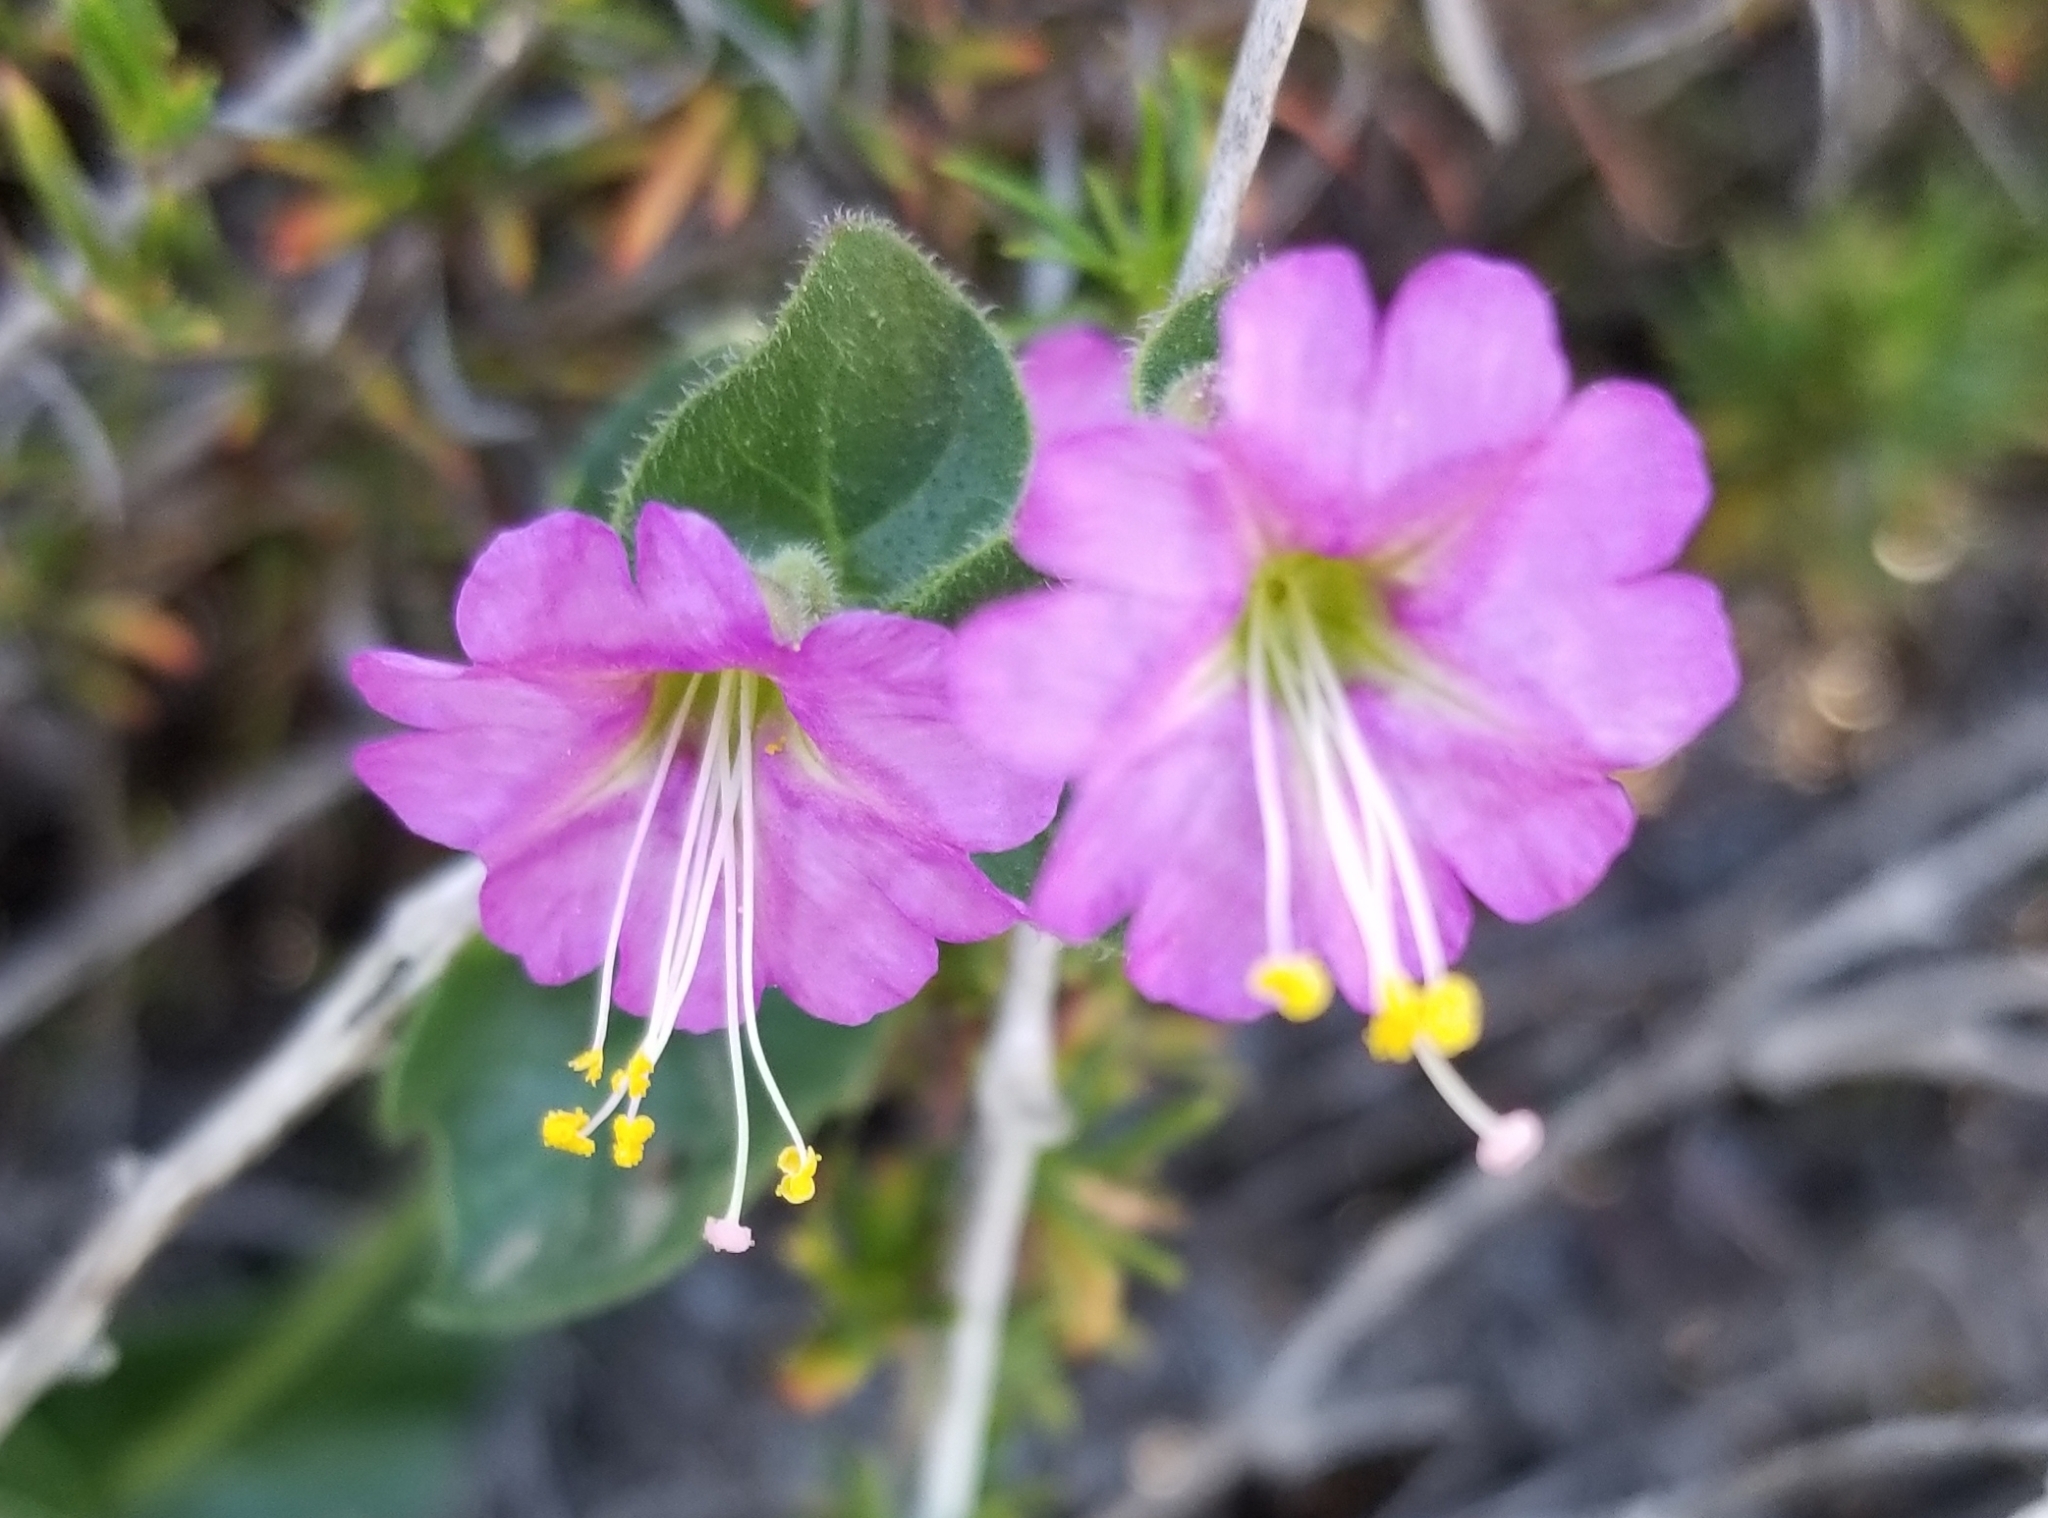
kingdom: Plantae
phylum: Tracheophyta
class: Magnoliopsida
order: Caryophyllales
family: Nyctaginaceae
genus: Mirabilis
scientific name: Mirabilis laevis
